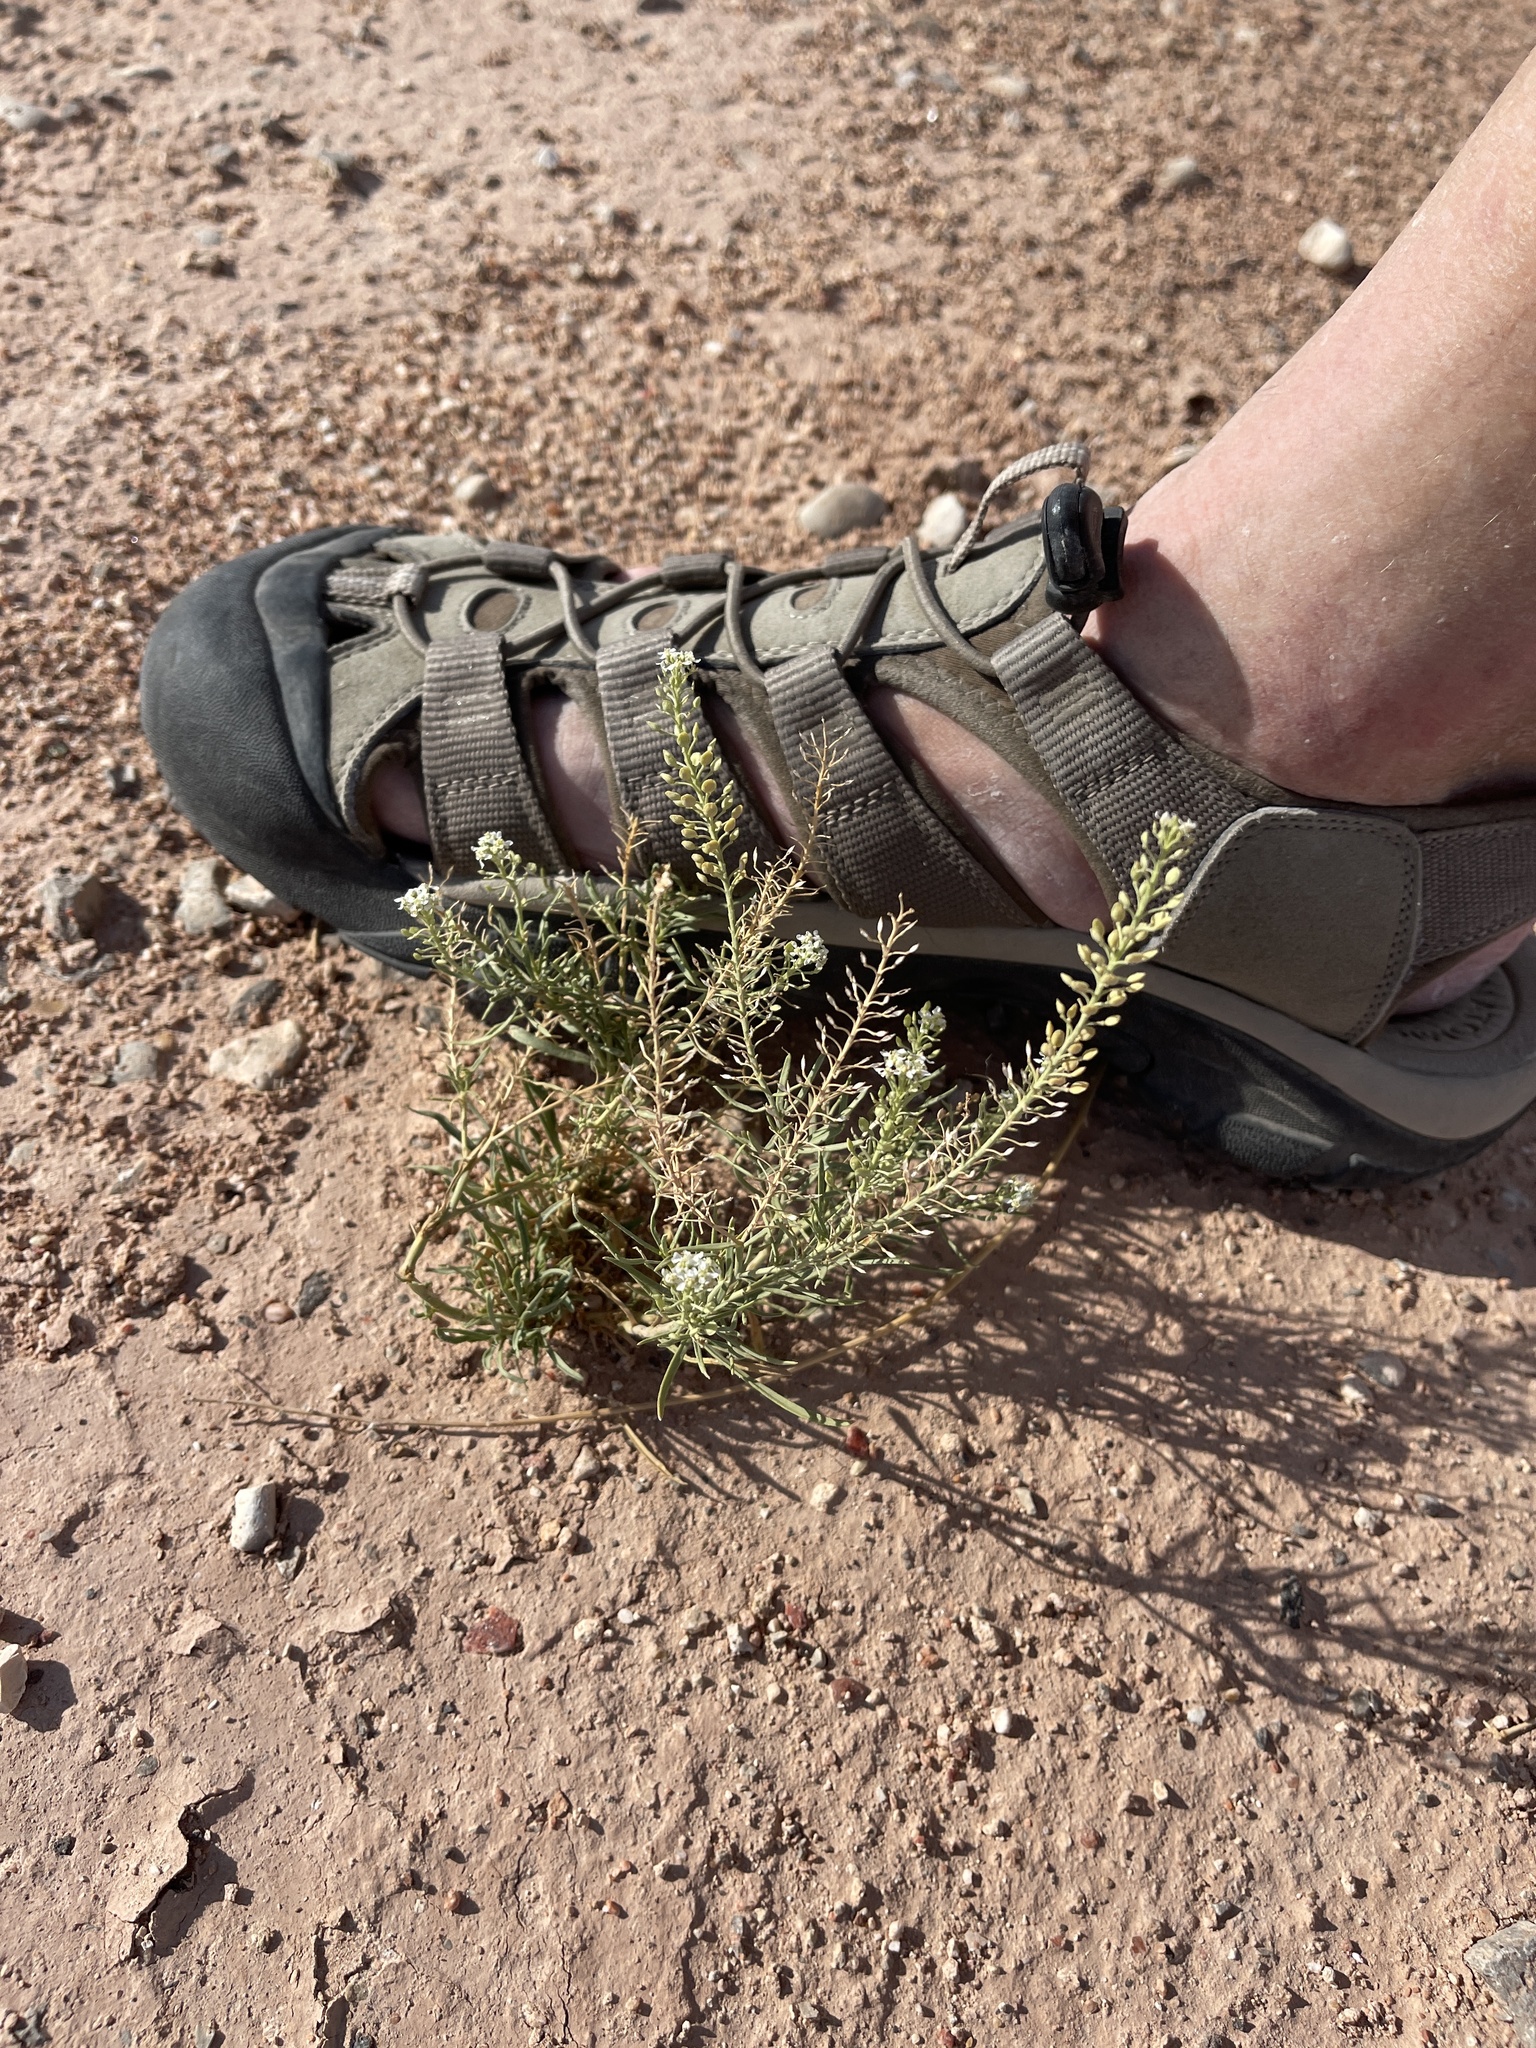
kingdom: Plantae
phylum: Tracheophyta
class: Magnoliopsida
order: Brassicales
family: Brassicaceae
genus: Lepidium
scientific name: Lepidium alyssoides
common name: Mesa pepperweed
